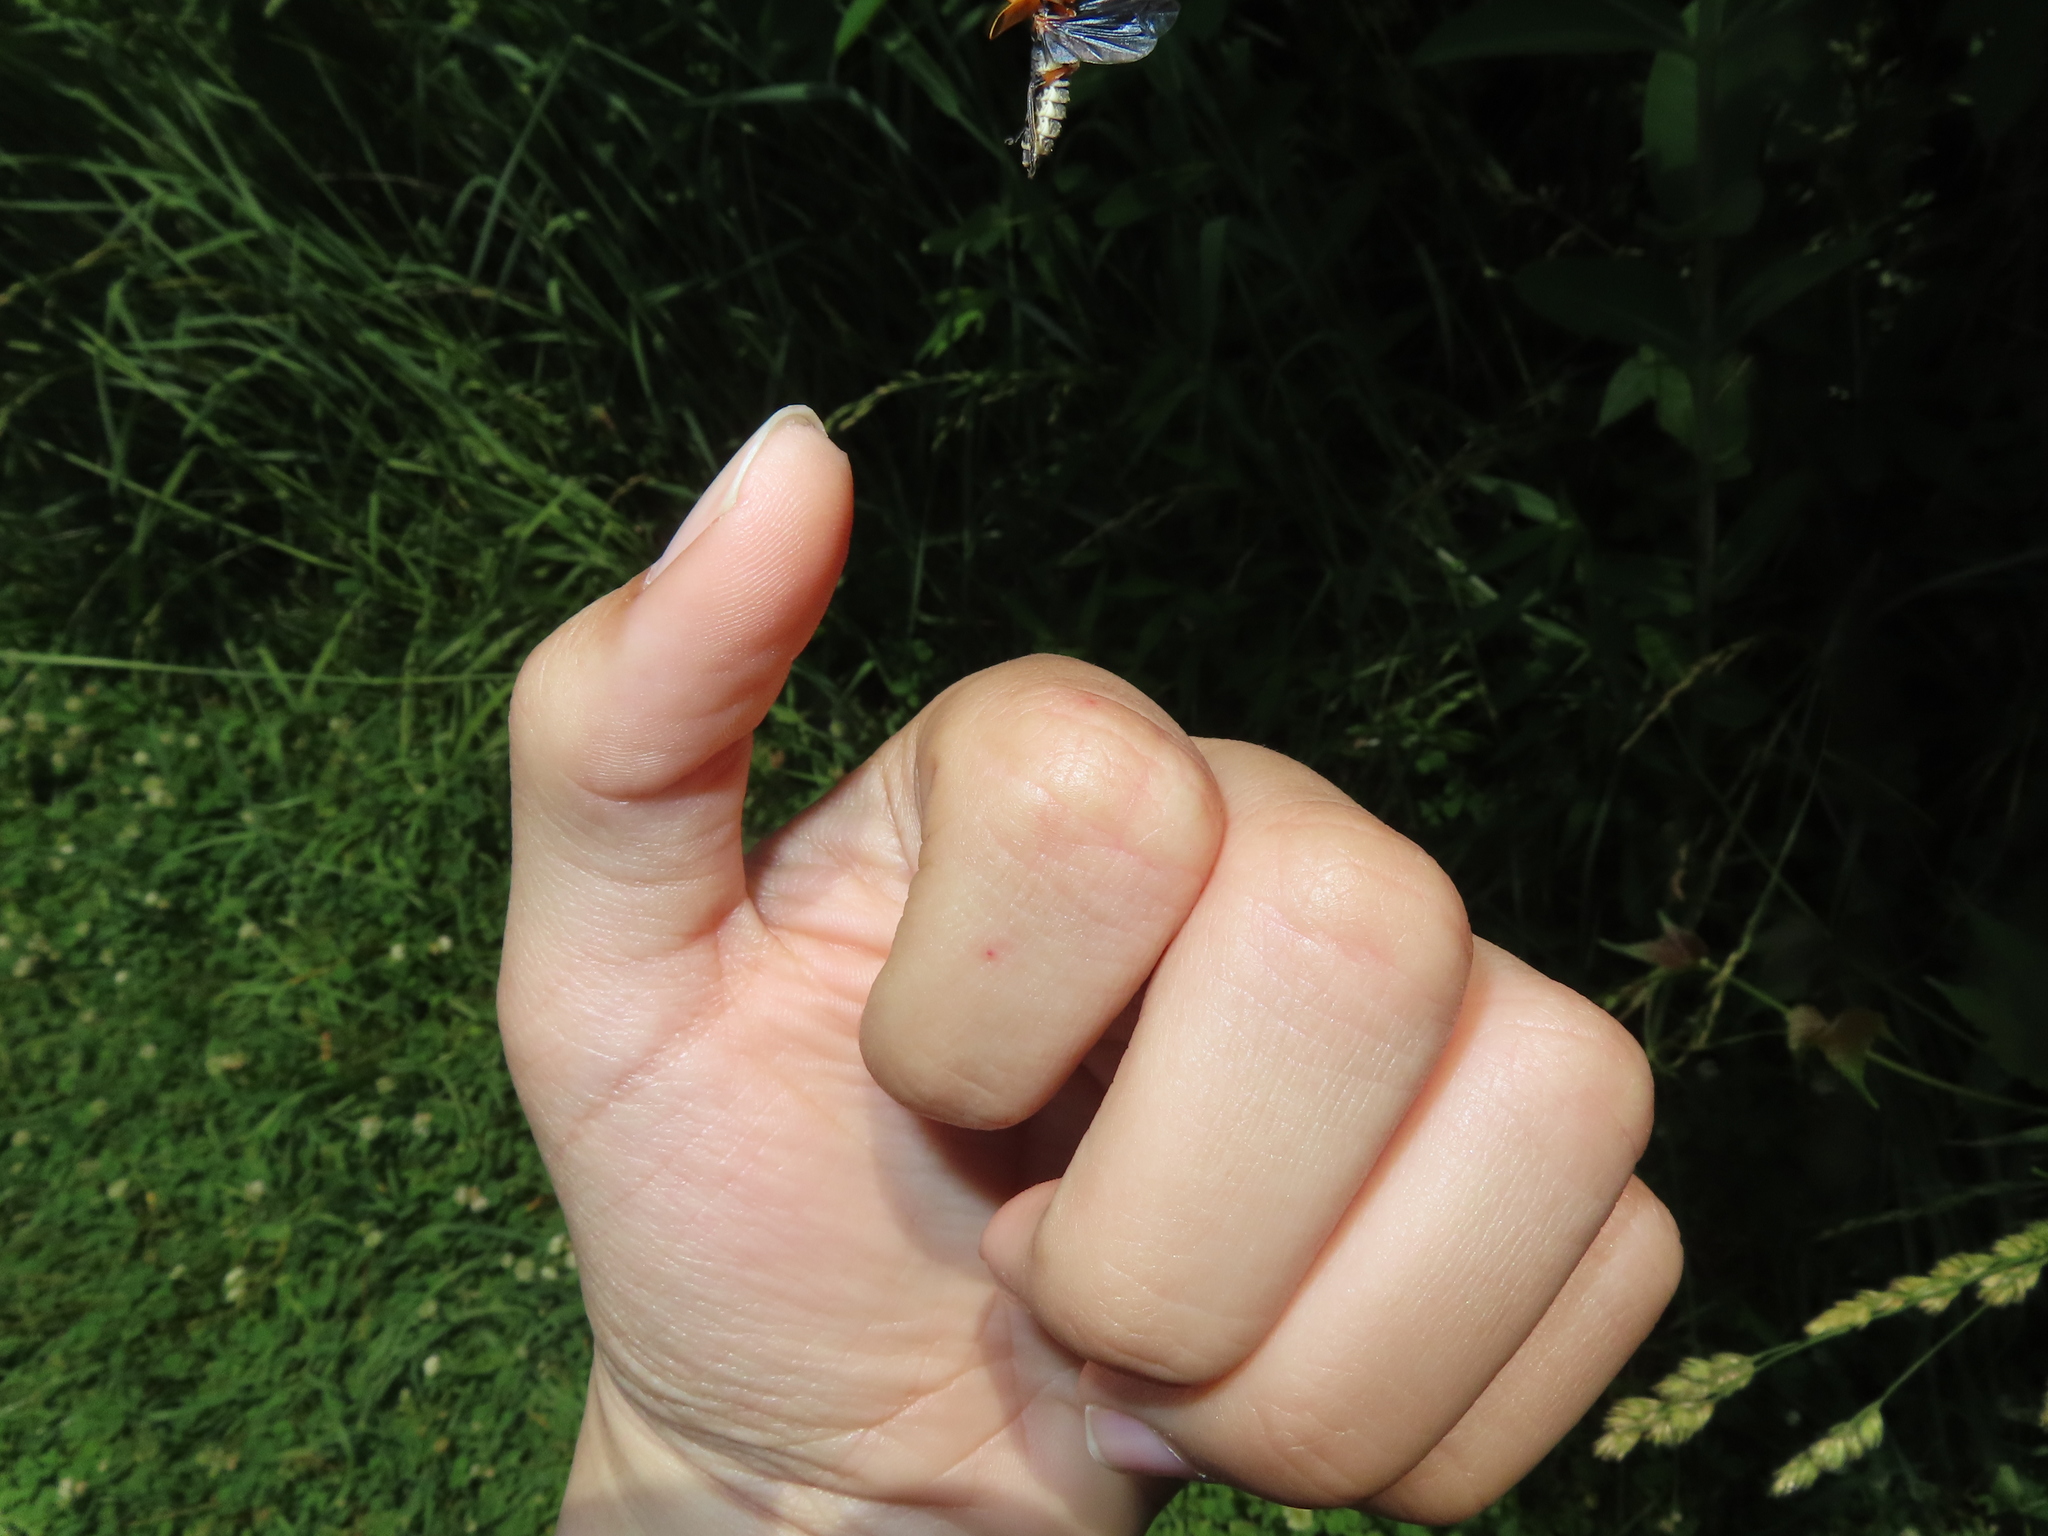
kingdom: Animalia
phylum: Arthropoda
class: Insecta
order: Coleoptera
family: Cantharidae
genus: Chauliognathus
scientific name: Chauliognathus marginatus
